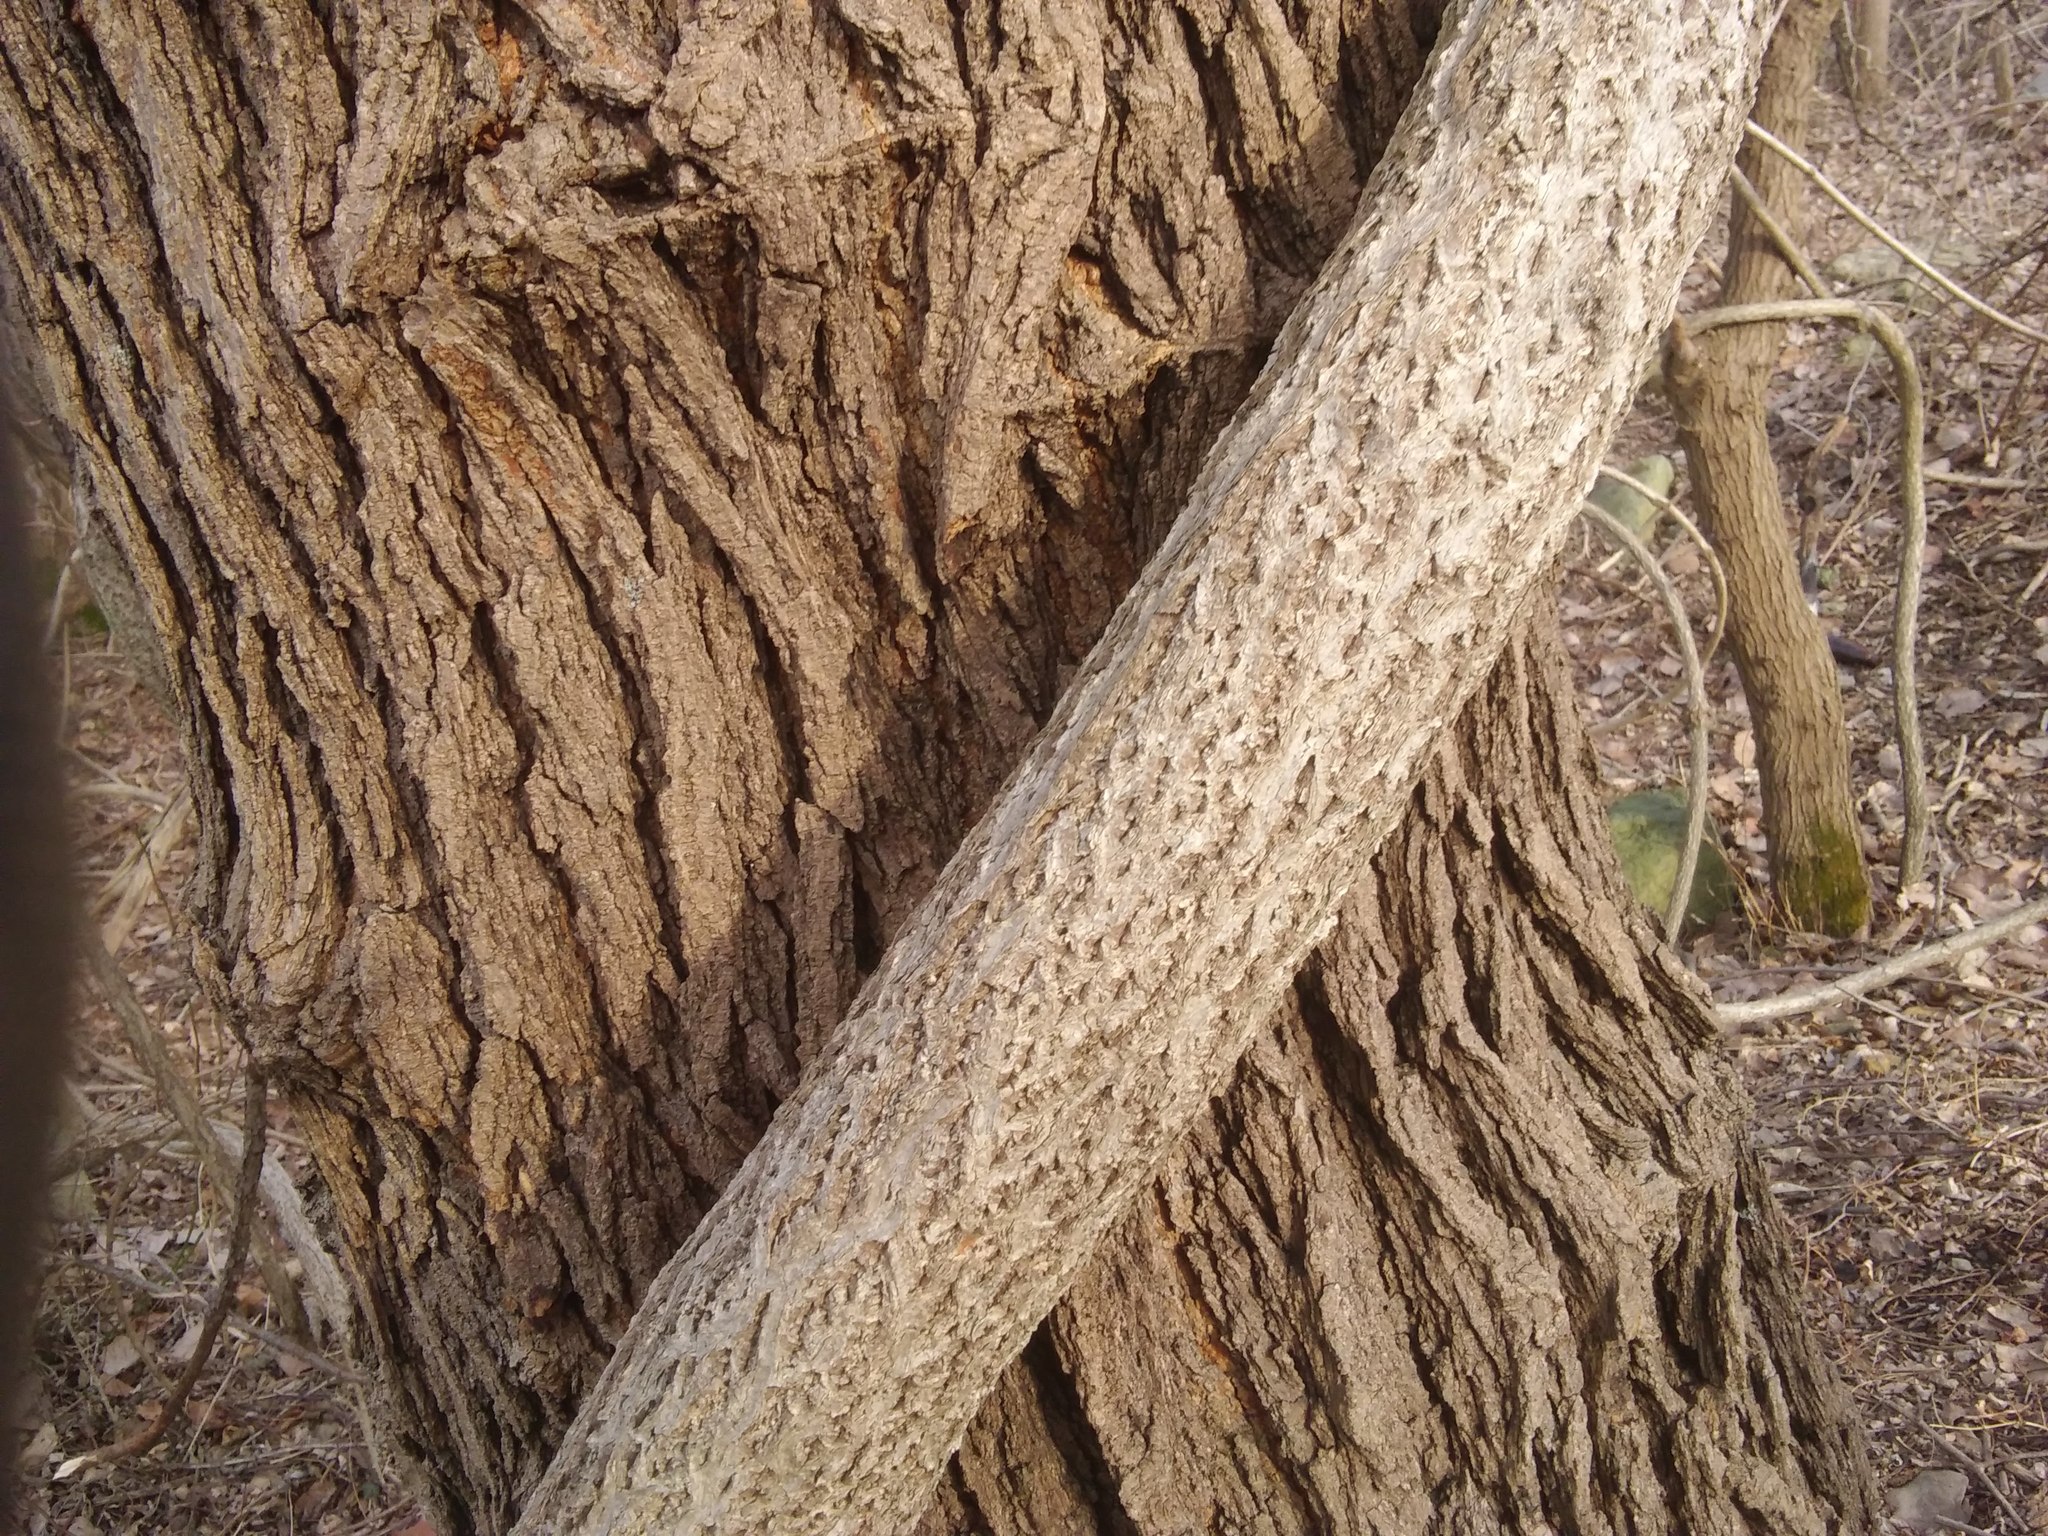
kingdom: Plantae
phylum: Tracheophyta
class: Magnoliopsida
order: Celastrales
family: Celastraceae
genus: Celastrus
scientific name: Celastrus orbiculatus
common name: Oriental bittersweet
